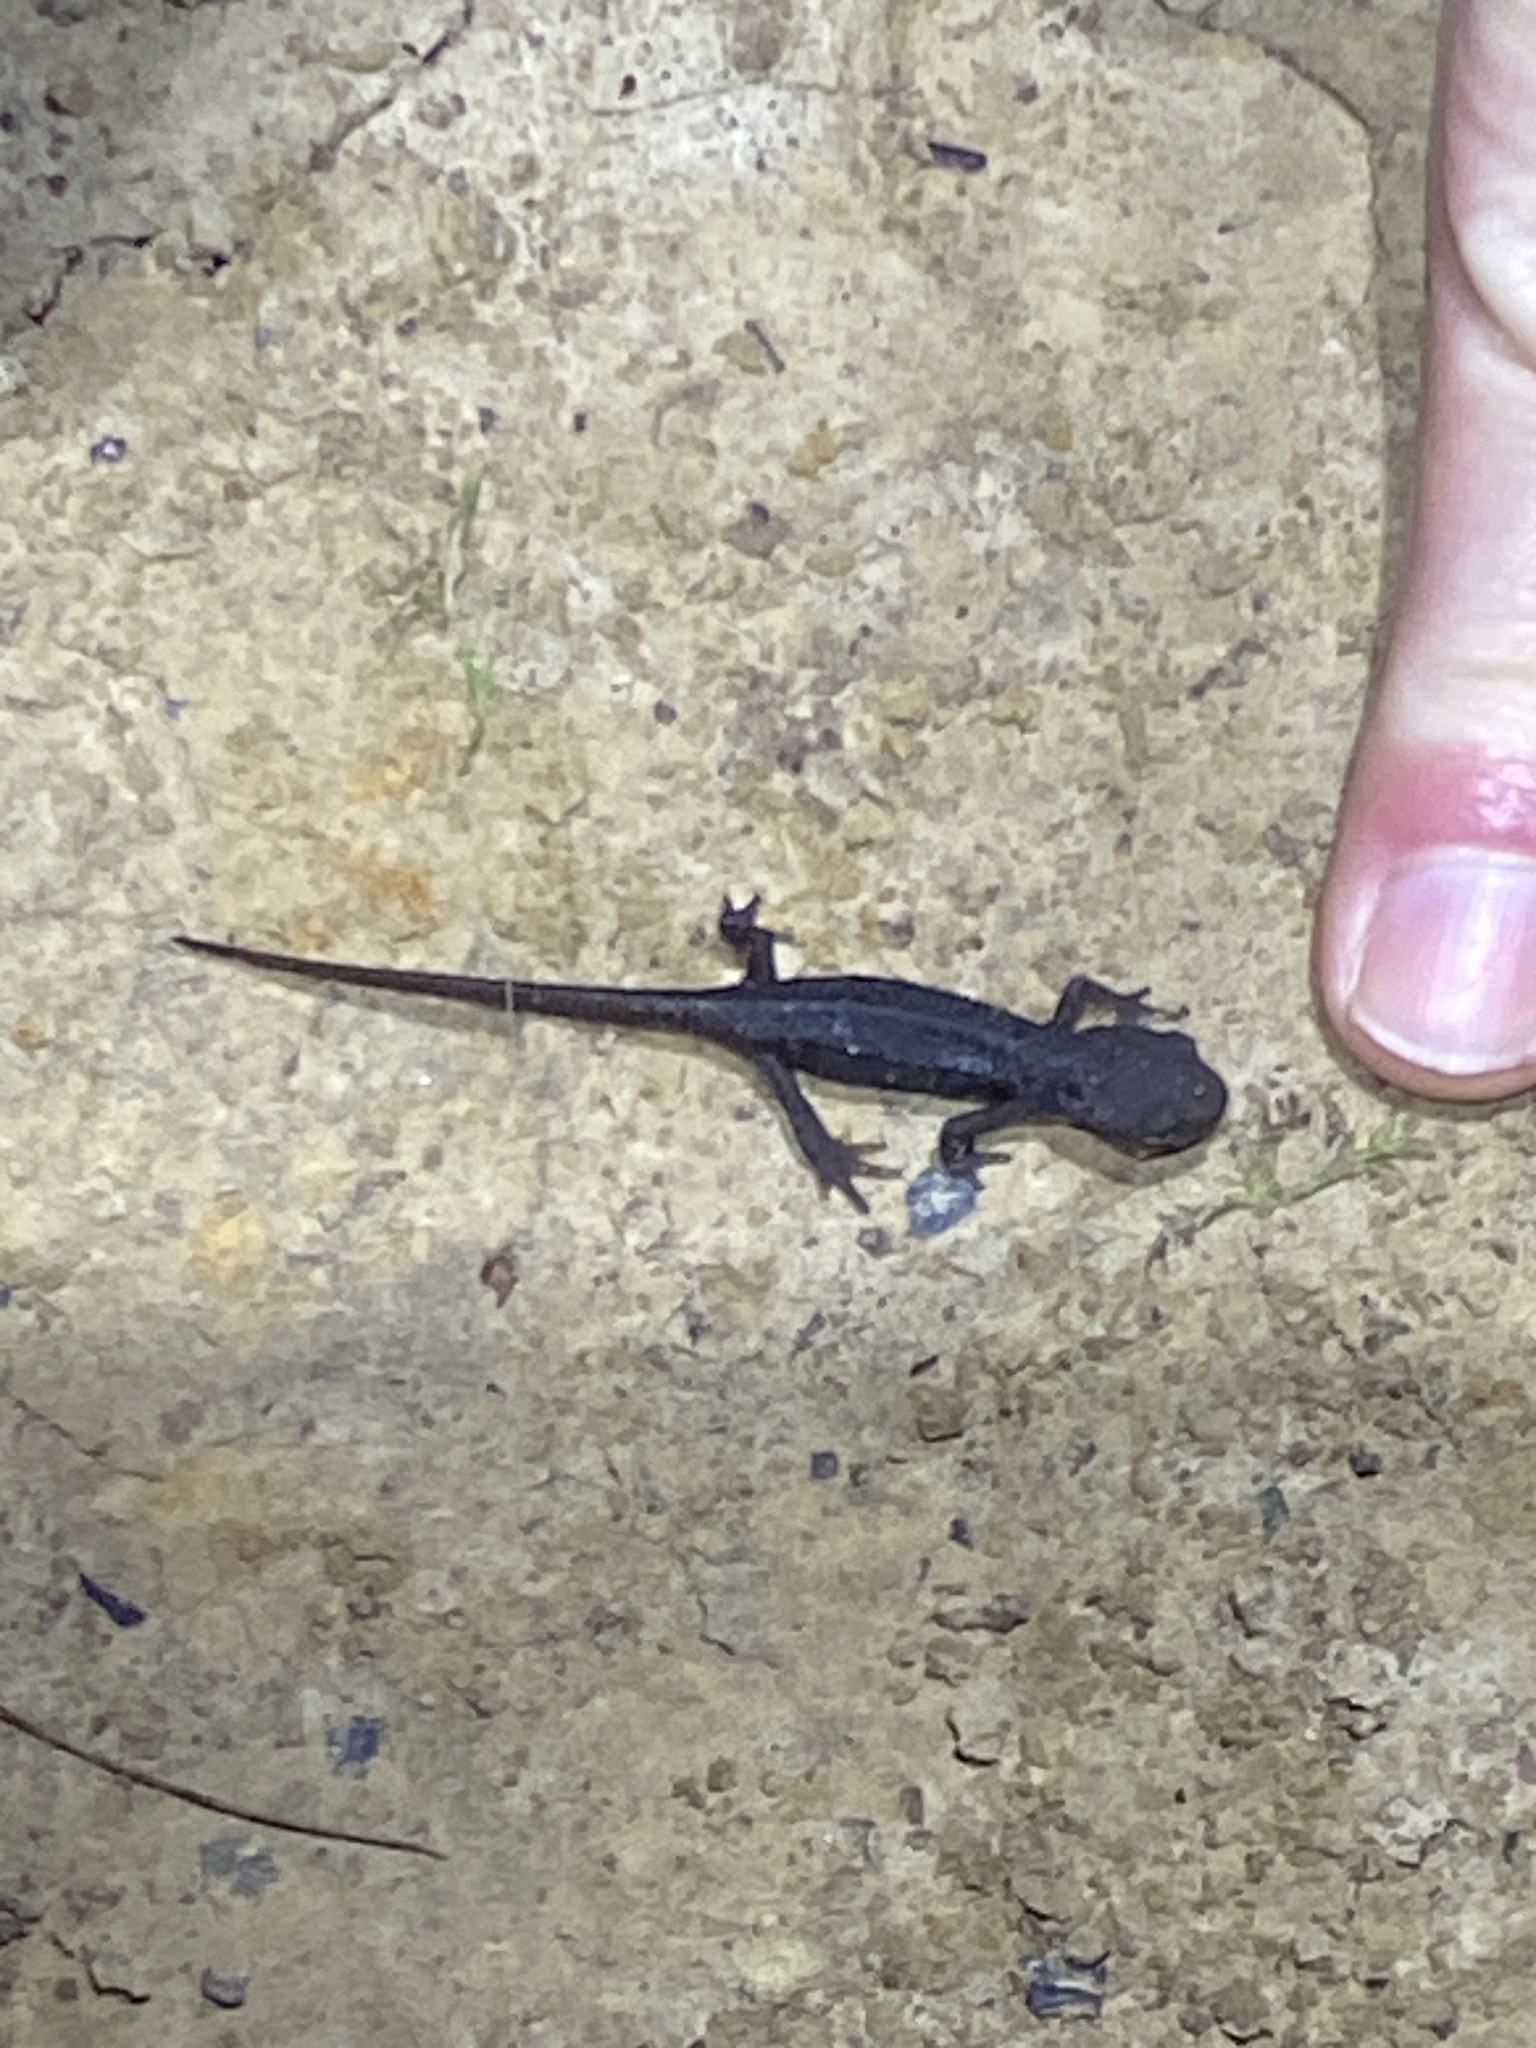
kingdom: Animalia
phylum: Chordata
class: Amphibia
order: Caudata
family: Salamandridae
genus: Taricha
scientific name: Taricha granulosa
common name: Roughskin newt
